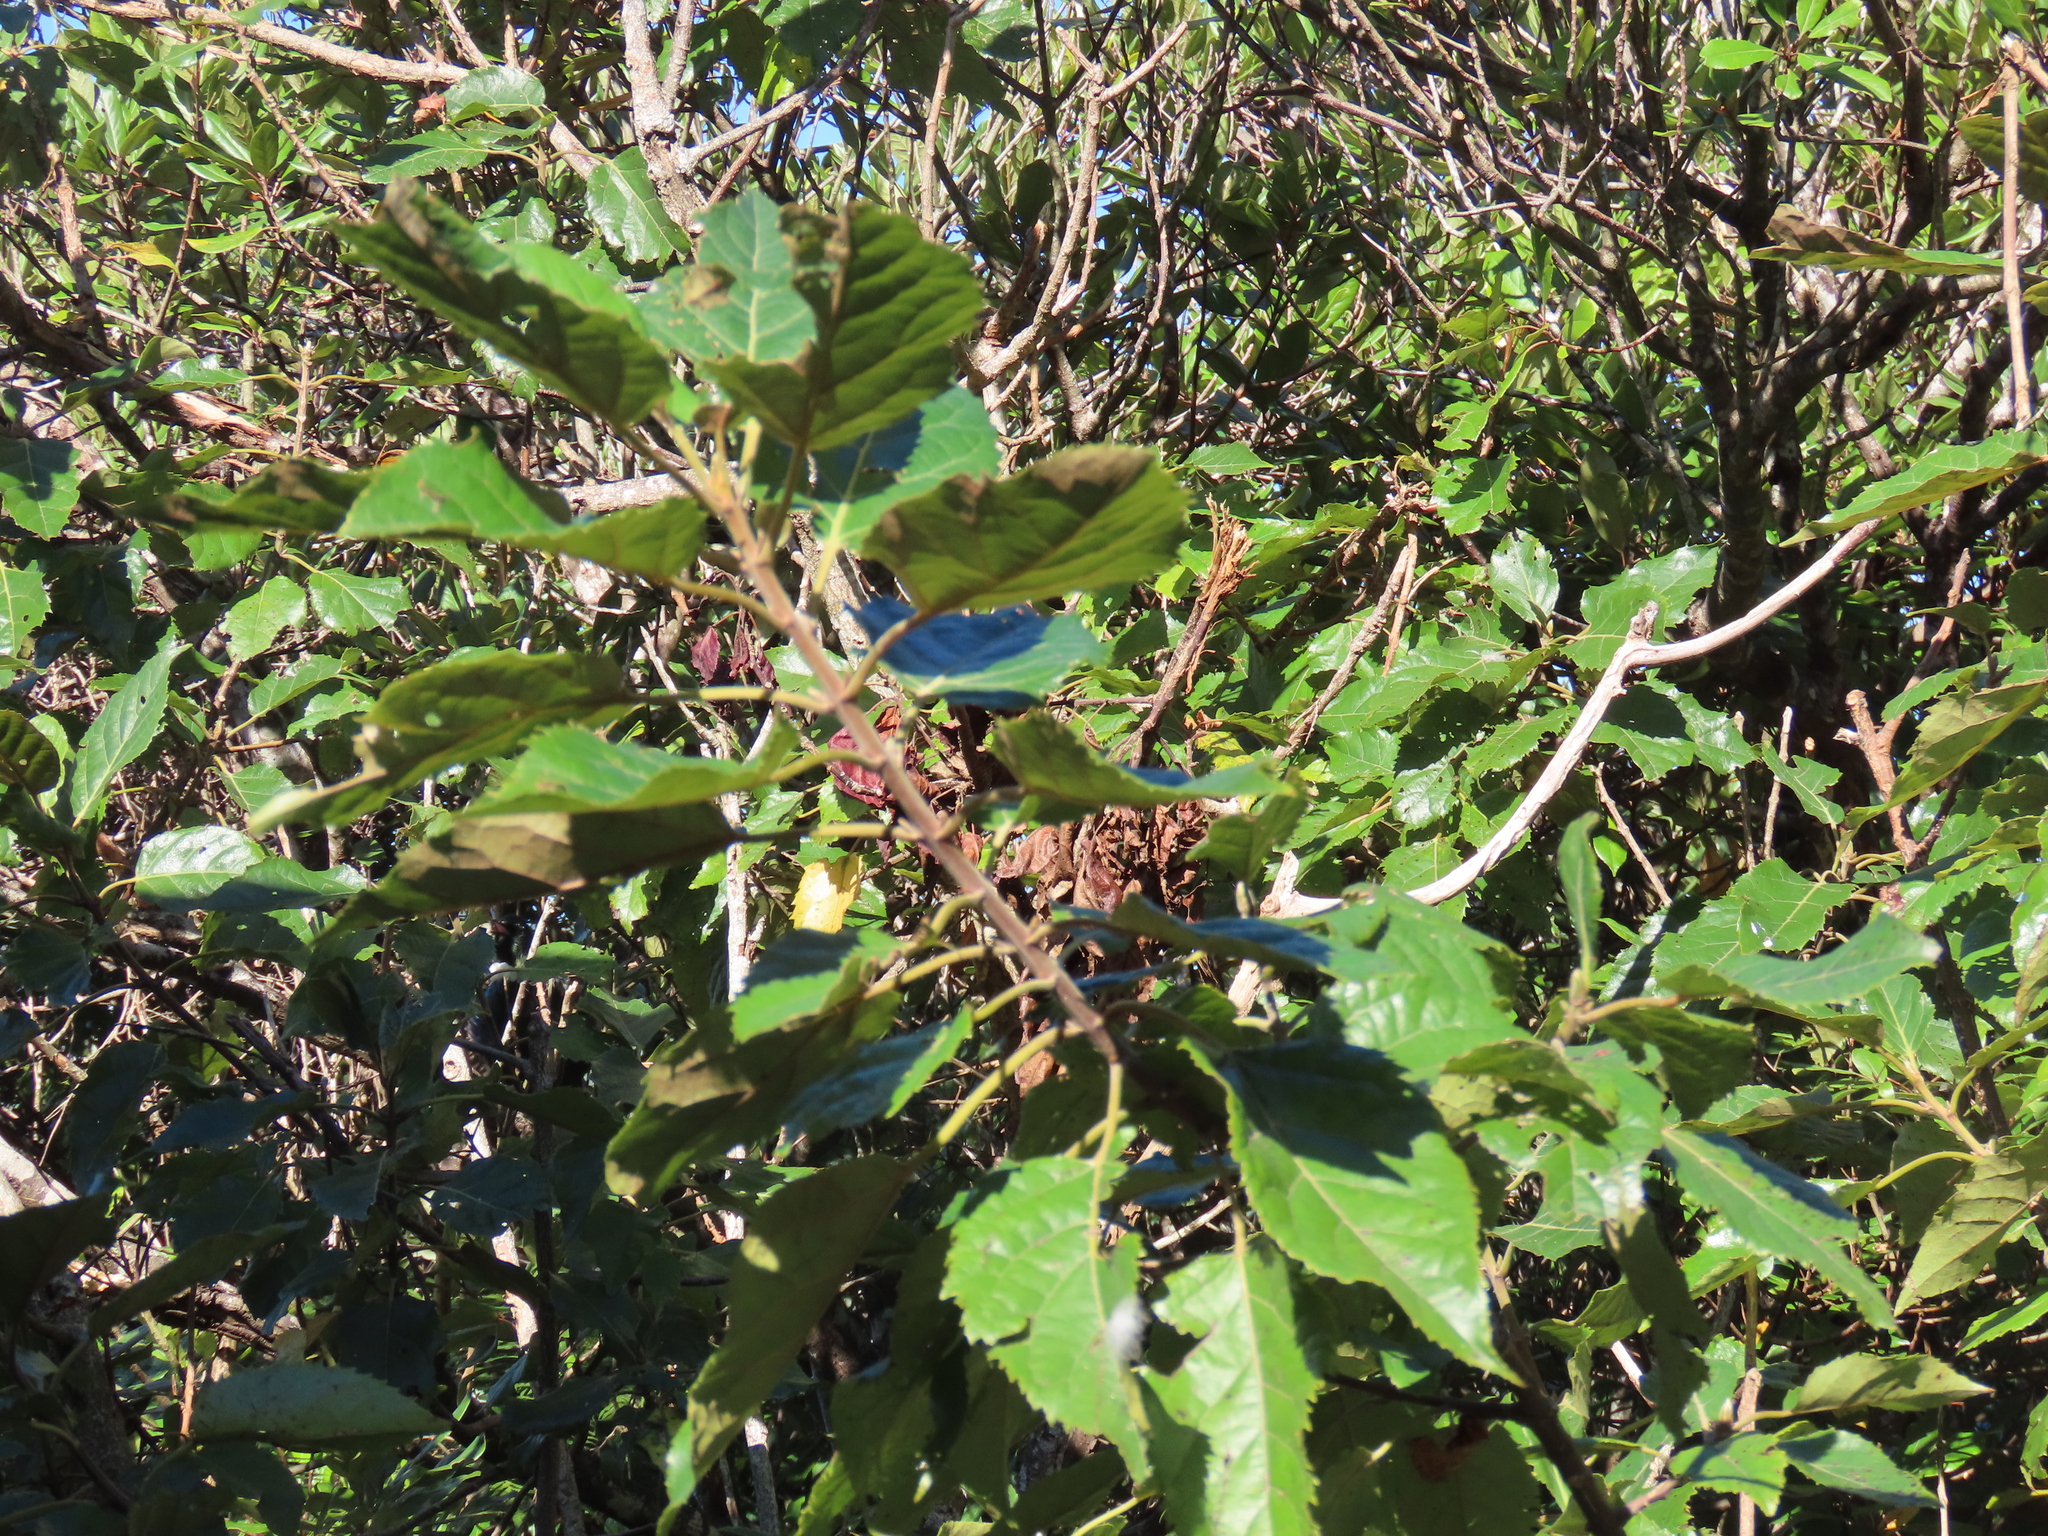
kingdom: Plantae
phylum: Tracheophyta
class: Magnoliopsida
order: Oxalidales
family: Elaeocarpaceae
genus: Aristotelia
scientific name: Aristotelia serrata
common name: New zealand wineberry
